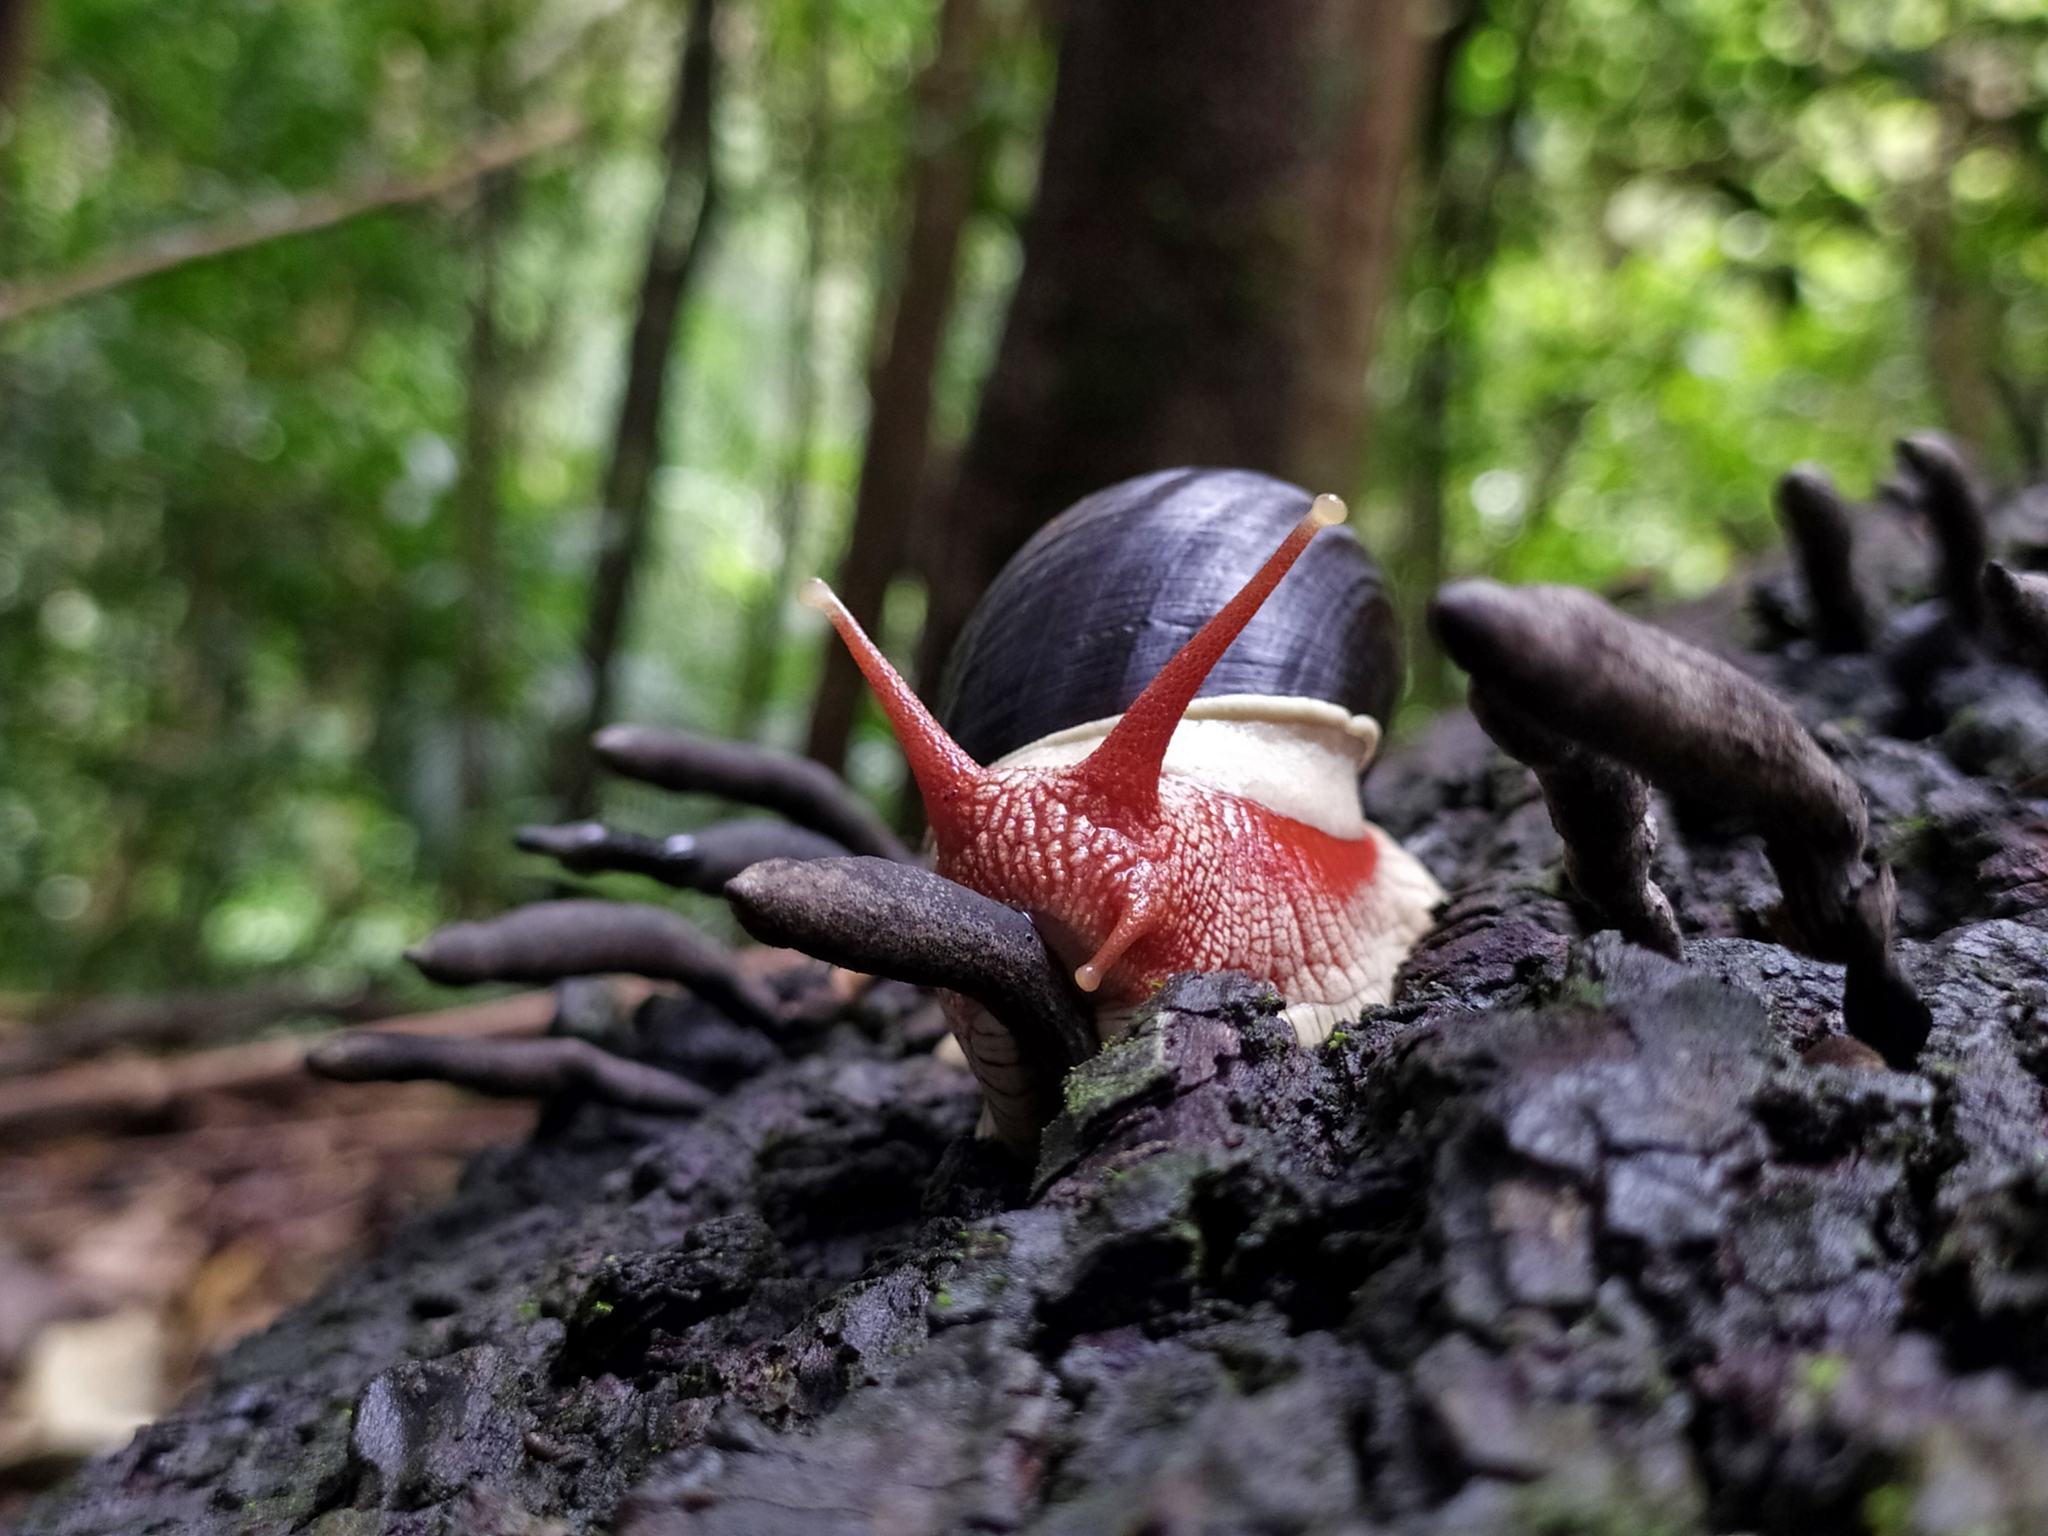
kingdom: Animalia
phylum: Mollusca
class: Gastropoda
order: Stylommatophora
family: Ariophantidae
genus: Indrella
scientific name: Indrella ampulla
